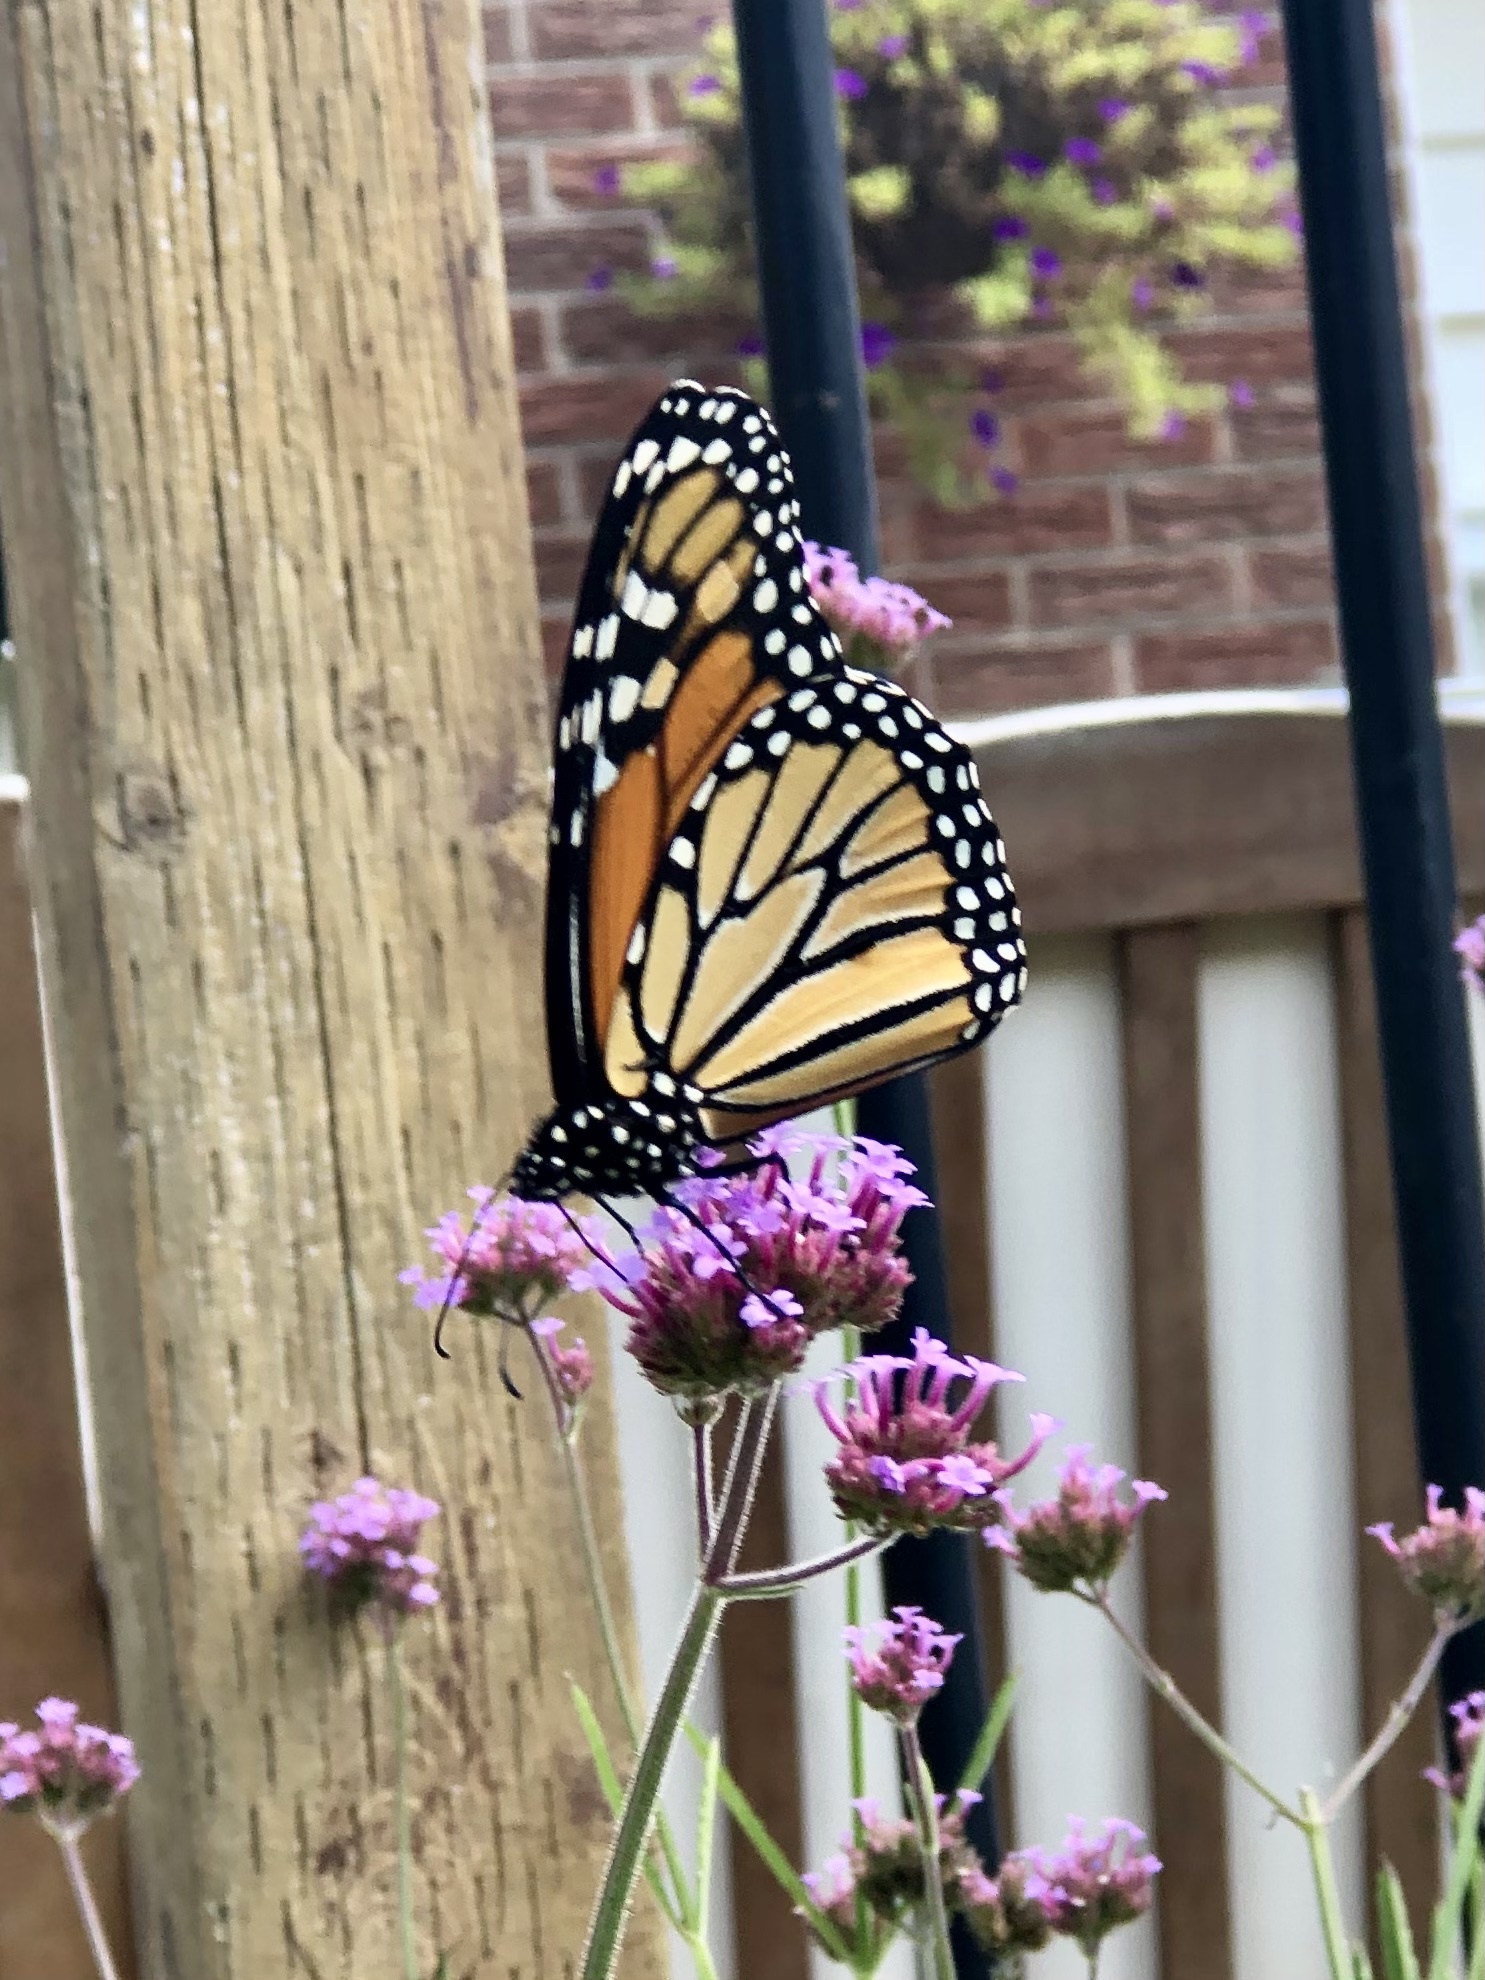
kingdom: Animalia
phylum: Arthropoda
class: Insecta
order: Lepidoptera
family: Nymphalidae
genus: Danaus
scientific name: Danaus plexippus
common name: Monarch
